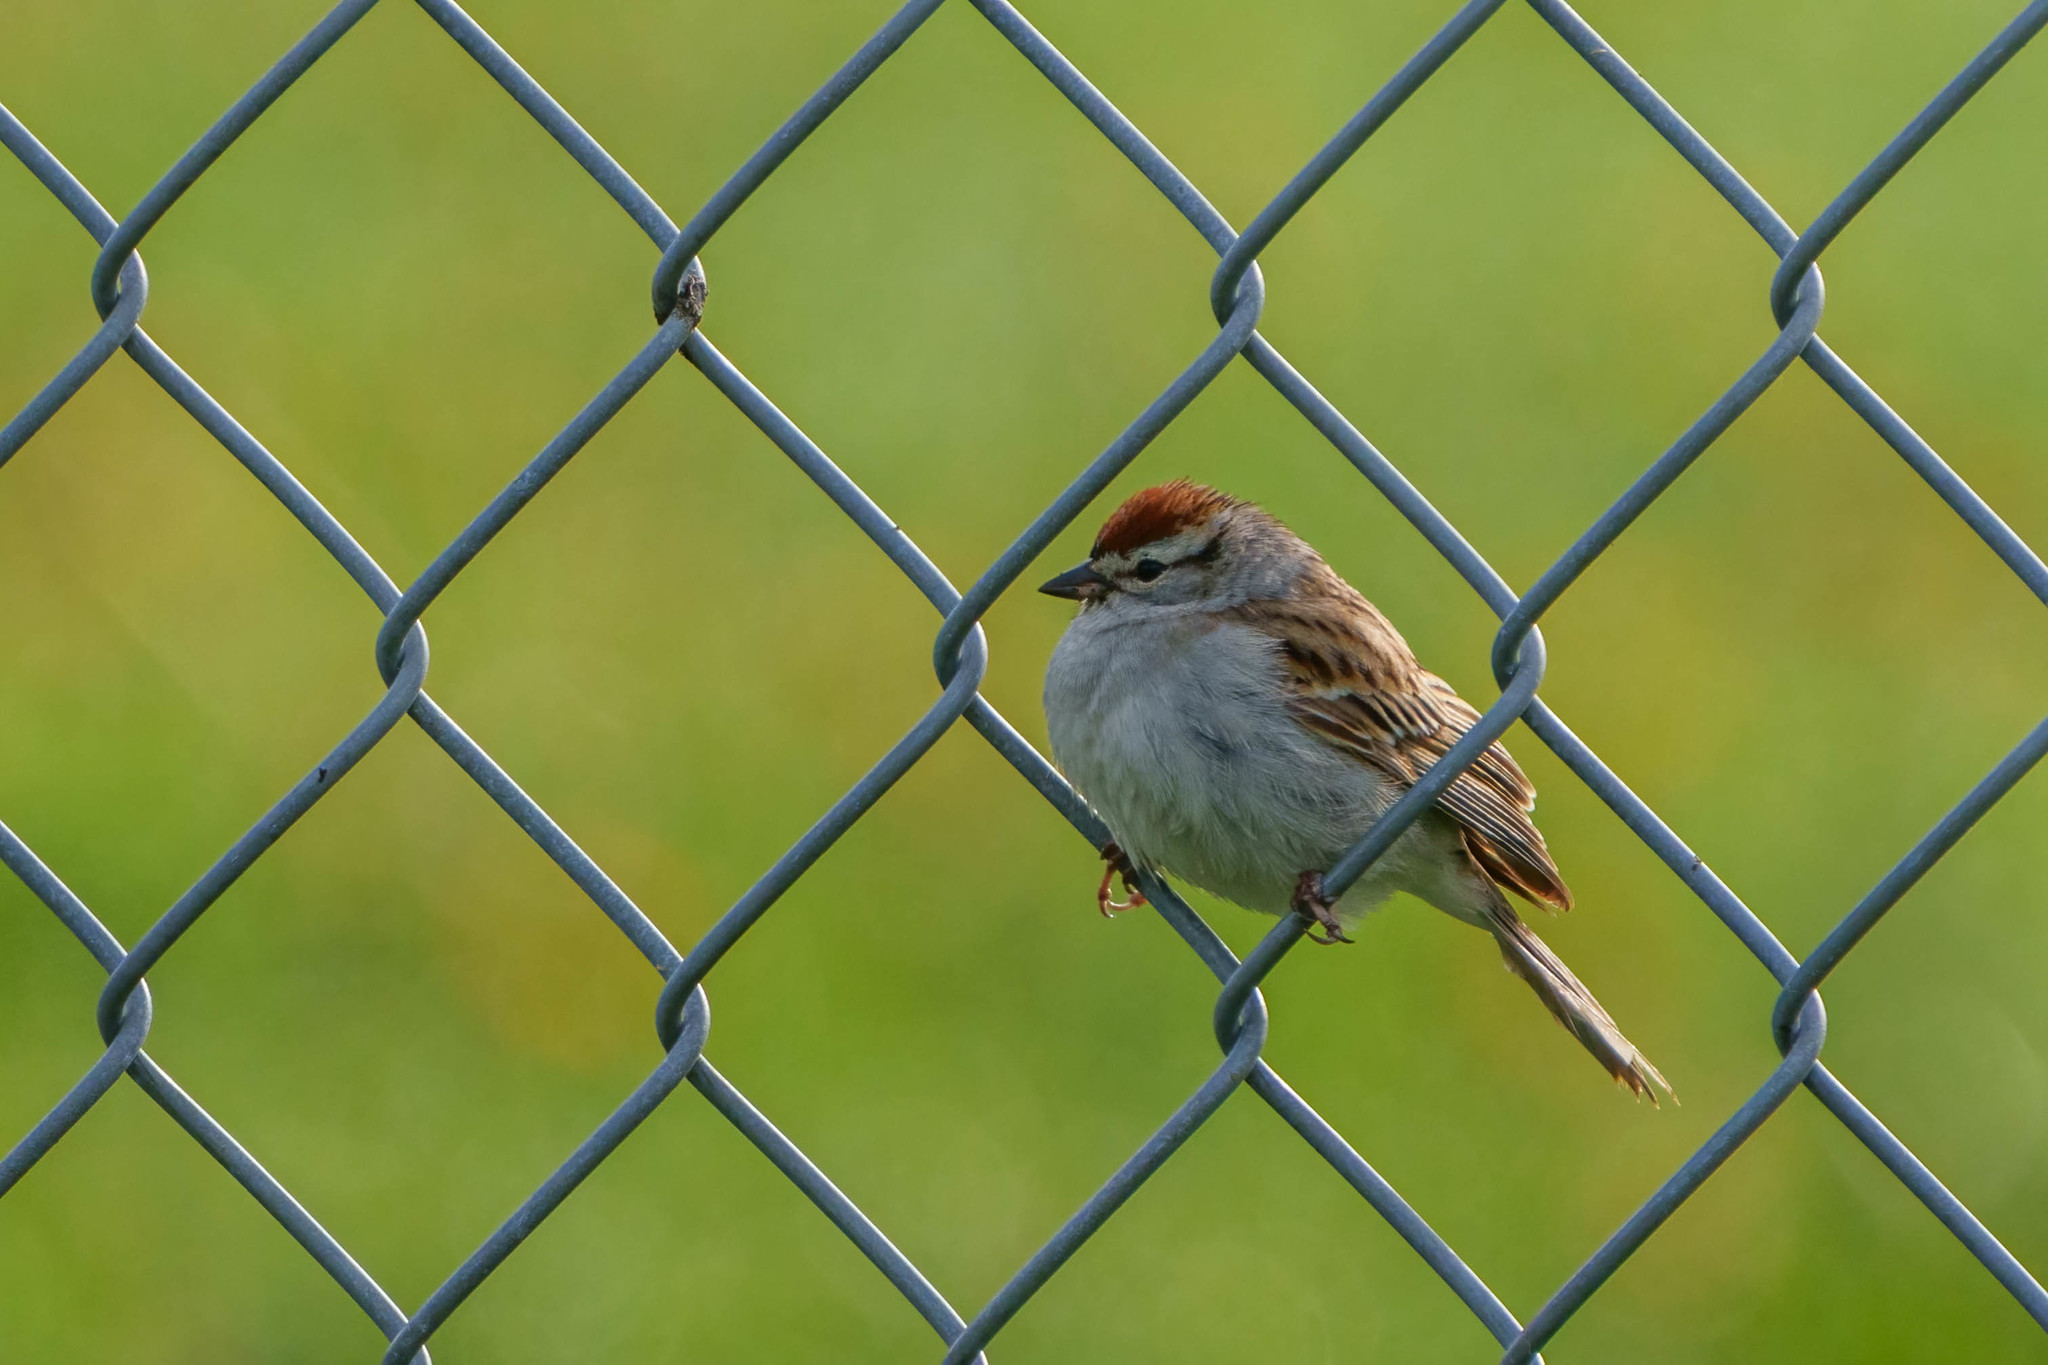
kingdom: Animalia
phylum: Chordata
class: Aves
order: Passeriformes
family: Passerellidae
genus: Spizella
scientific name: Spizella passerina
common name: Chipping sparrow
